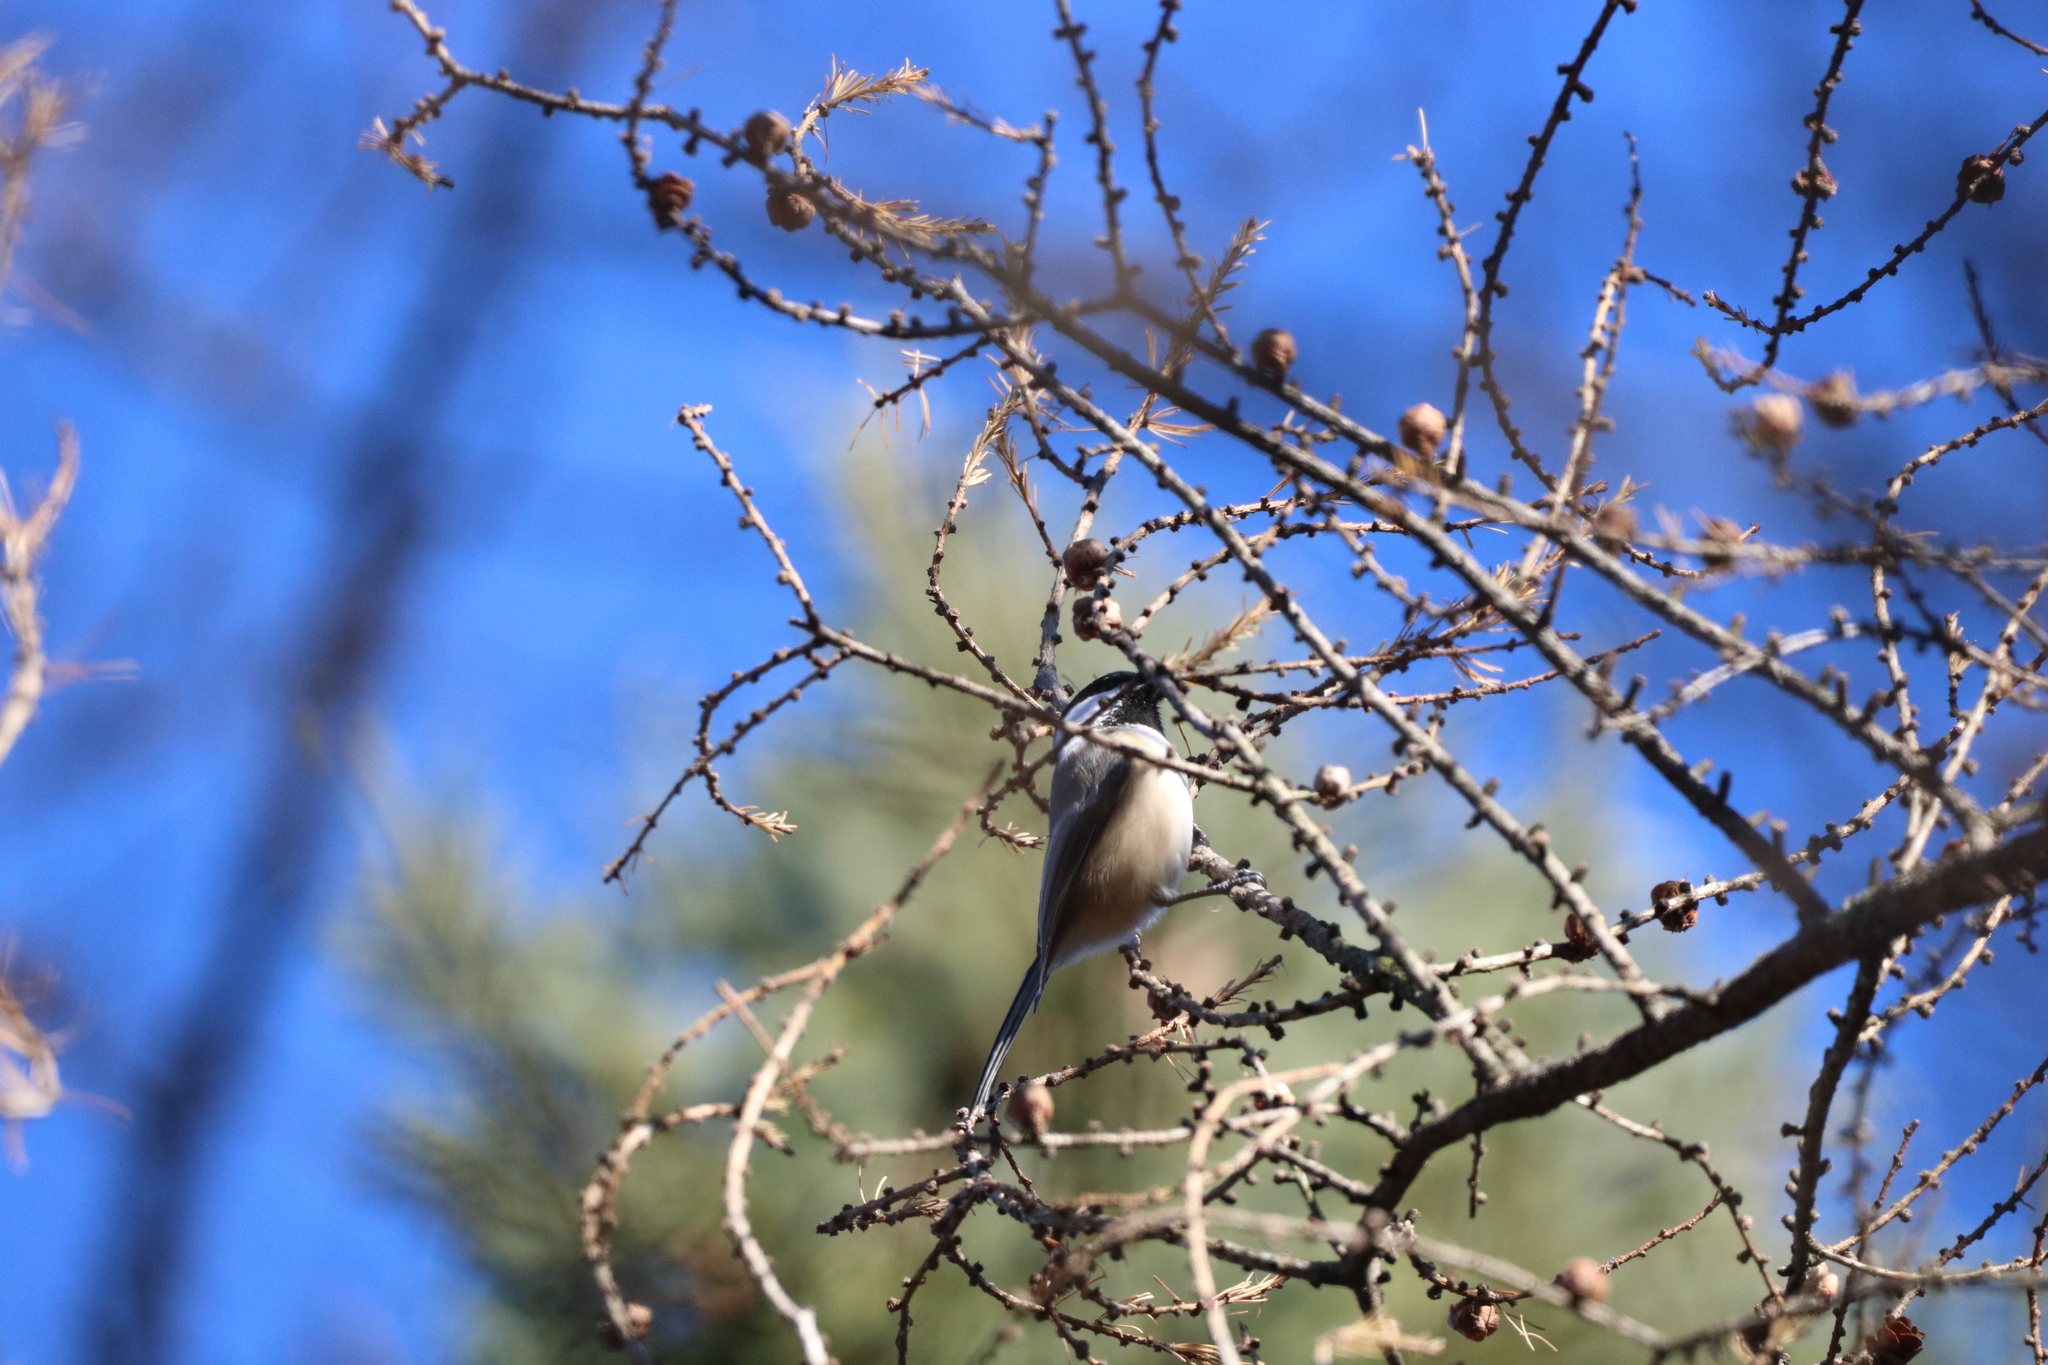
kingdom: Animalia
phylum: Chordata
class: Aves
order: Passeriformes
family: Paridae
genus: Poecile
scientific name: Poecile atricapillus
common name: Black-capped chickadee
